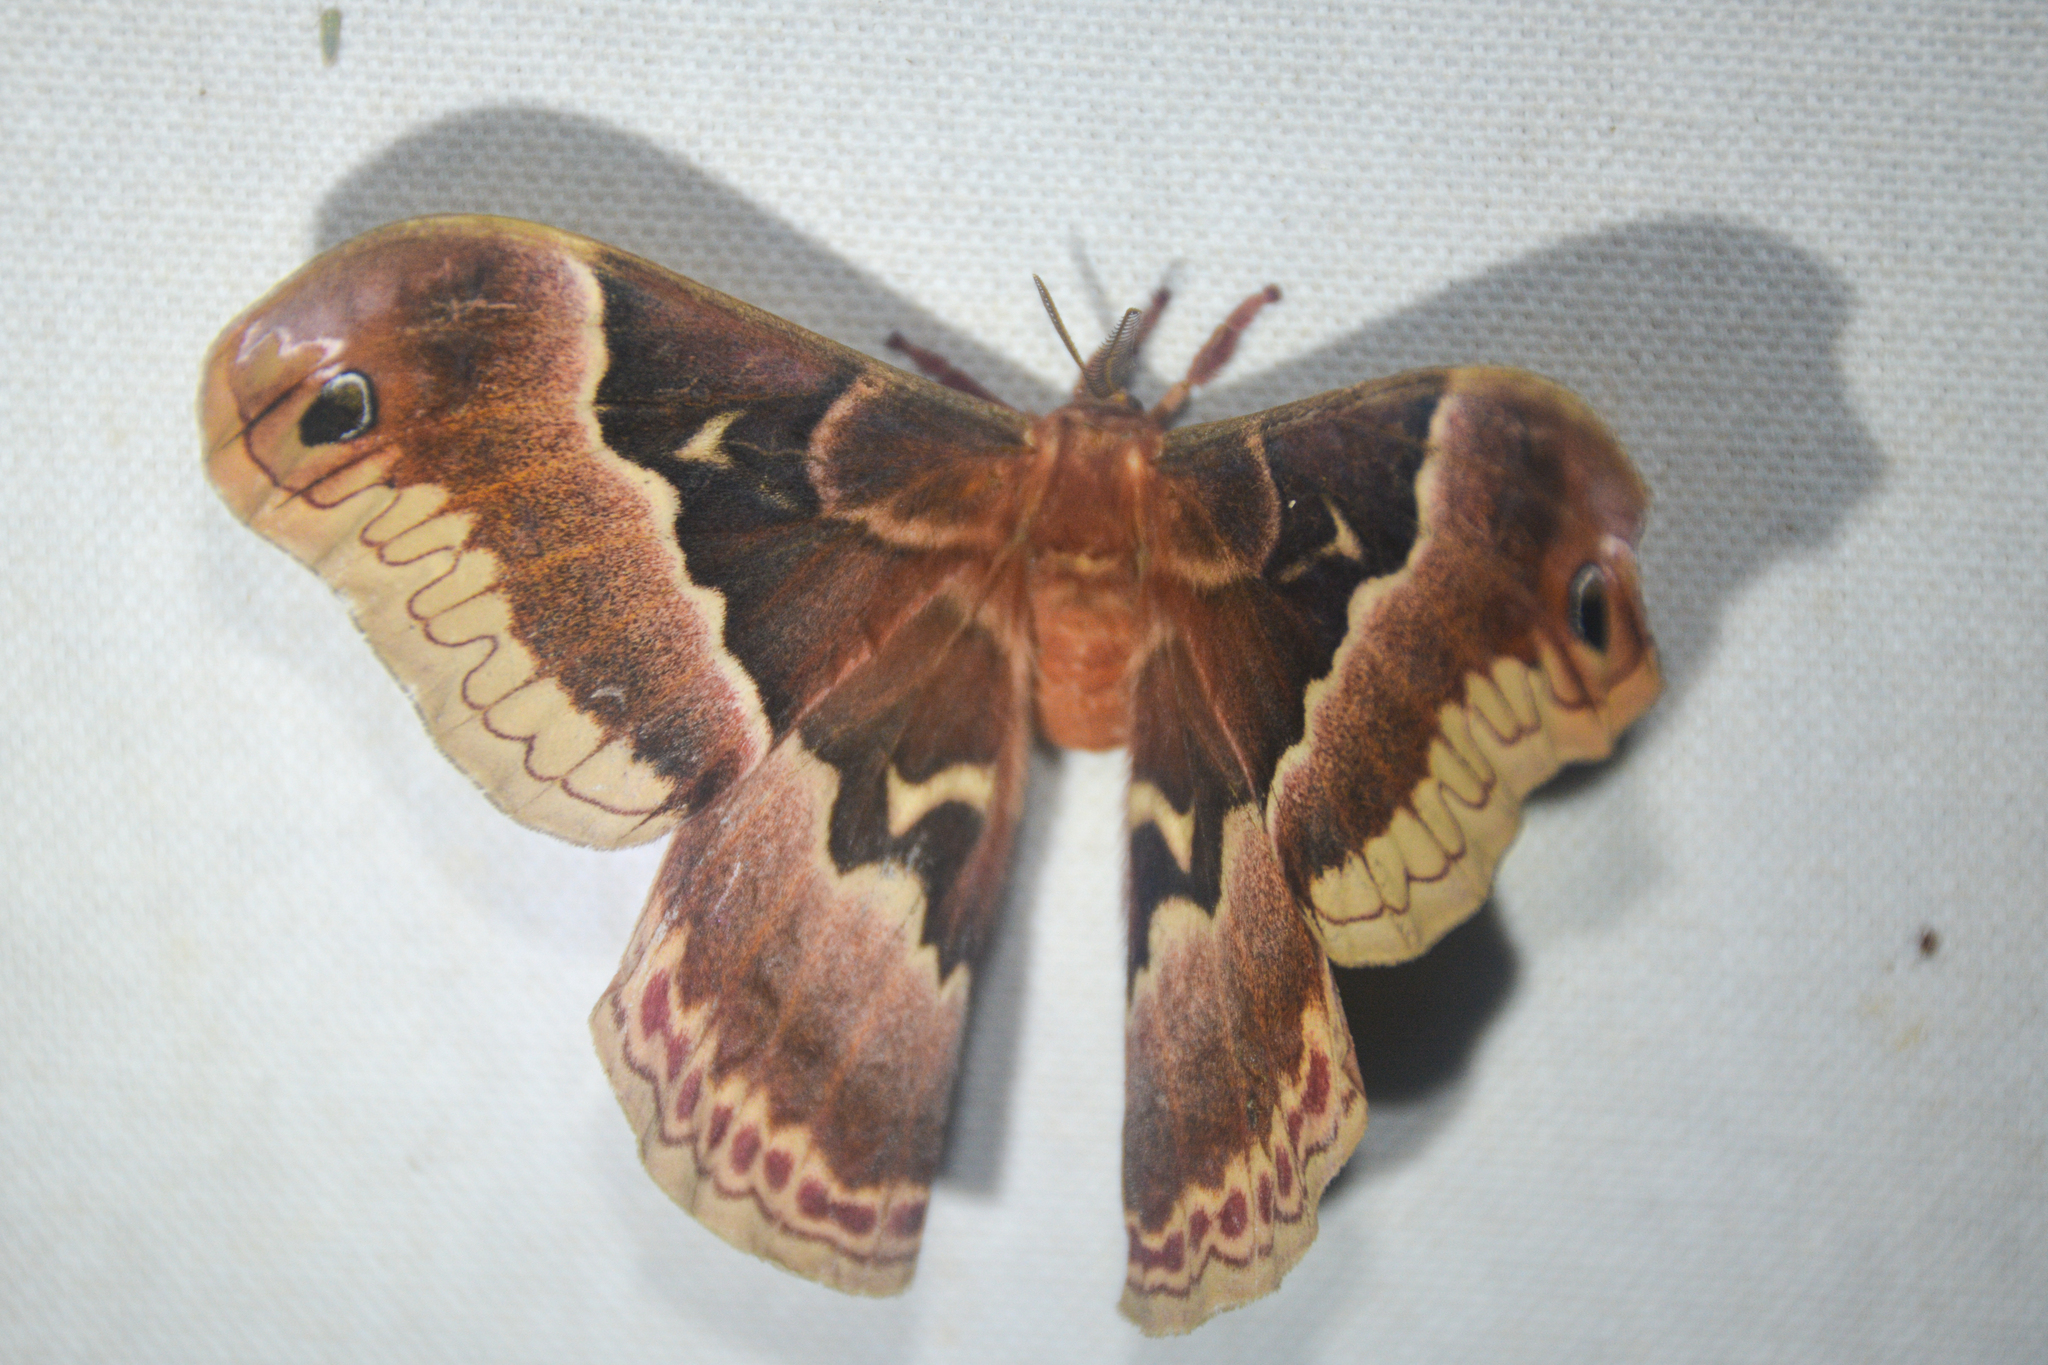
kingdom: Animalia
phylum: Arthropoda
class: Insecta
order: Lepidoptera
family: Saturniidae
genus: Callosamia
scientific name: Callosamia promethea
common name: Promethea silkmoth
